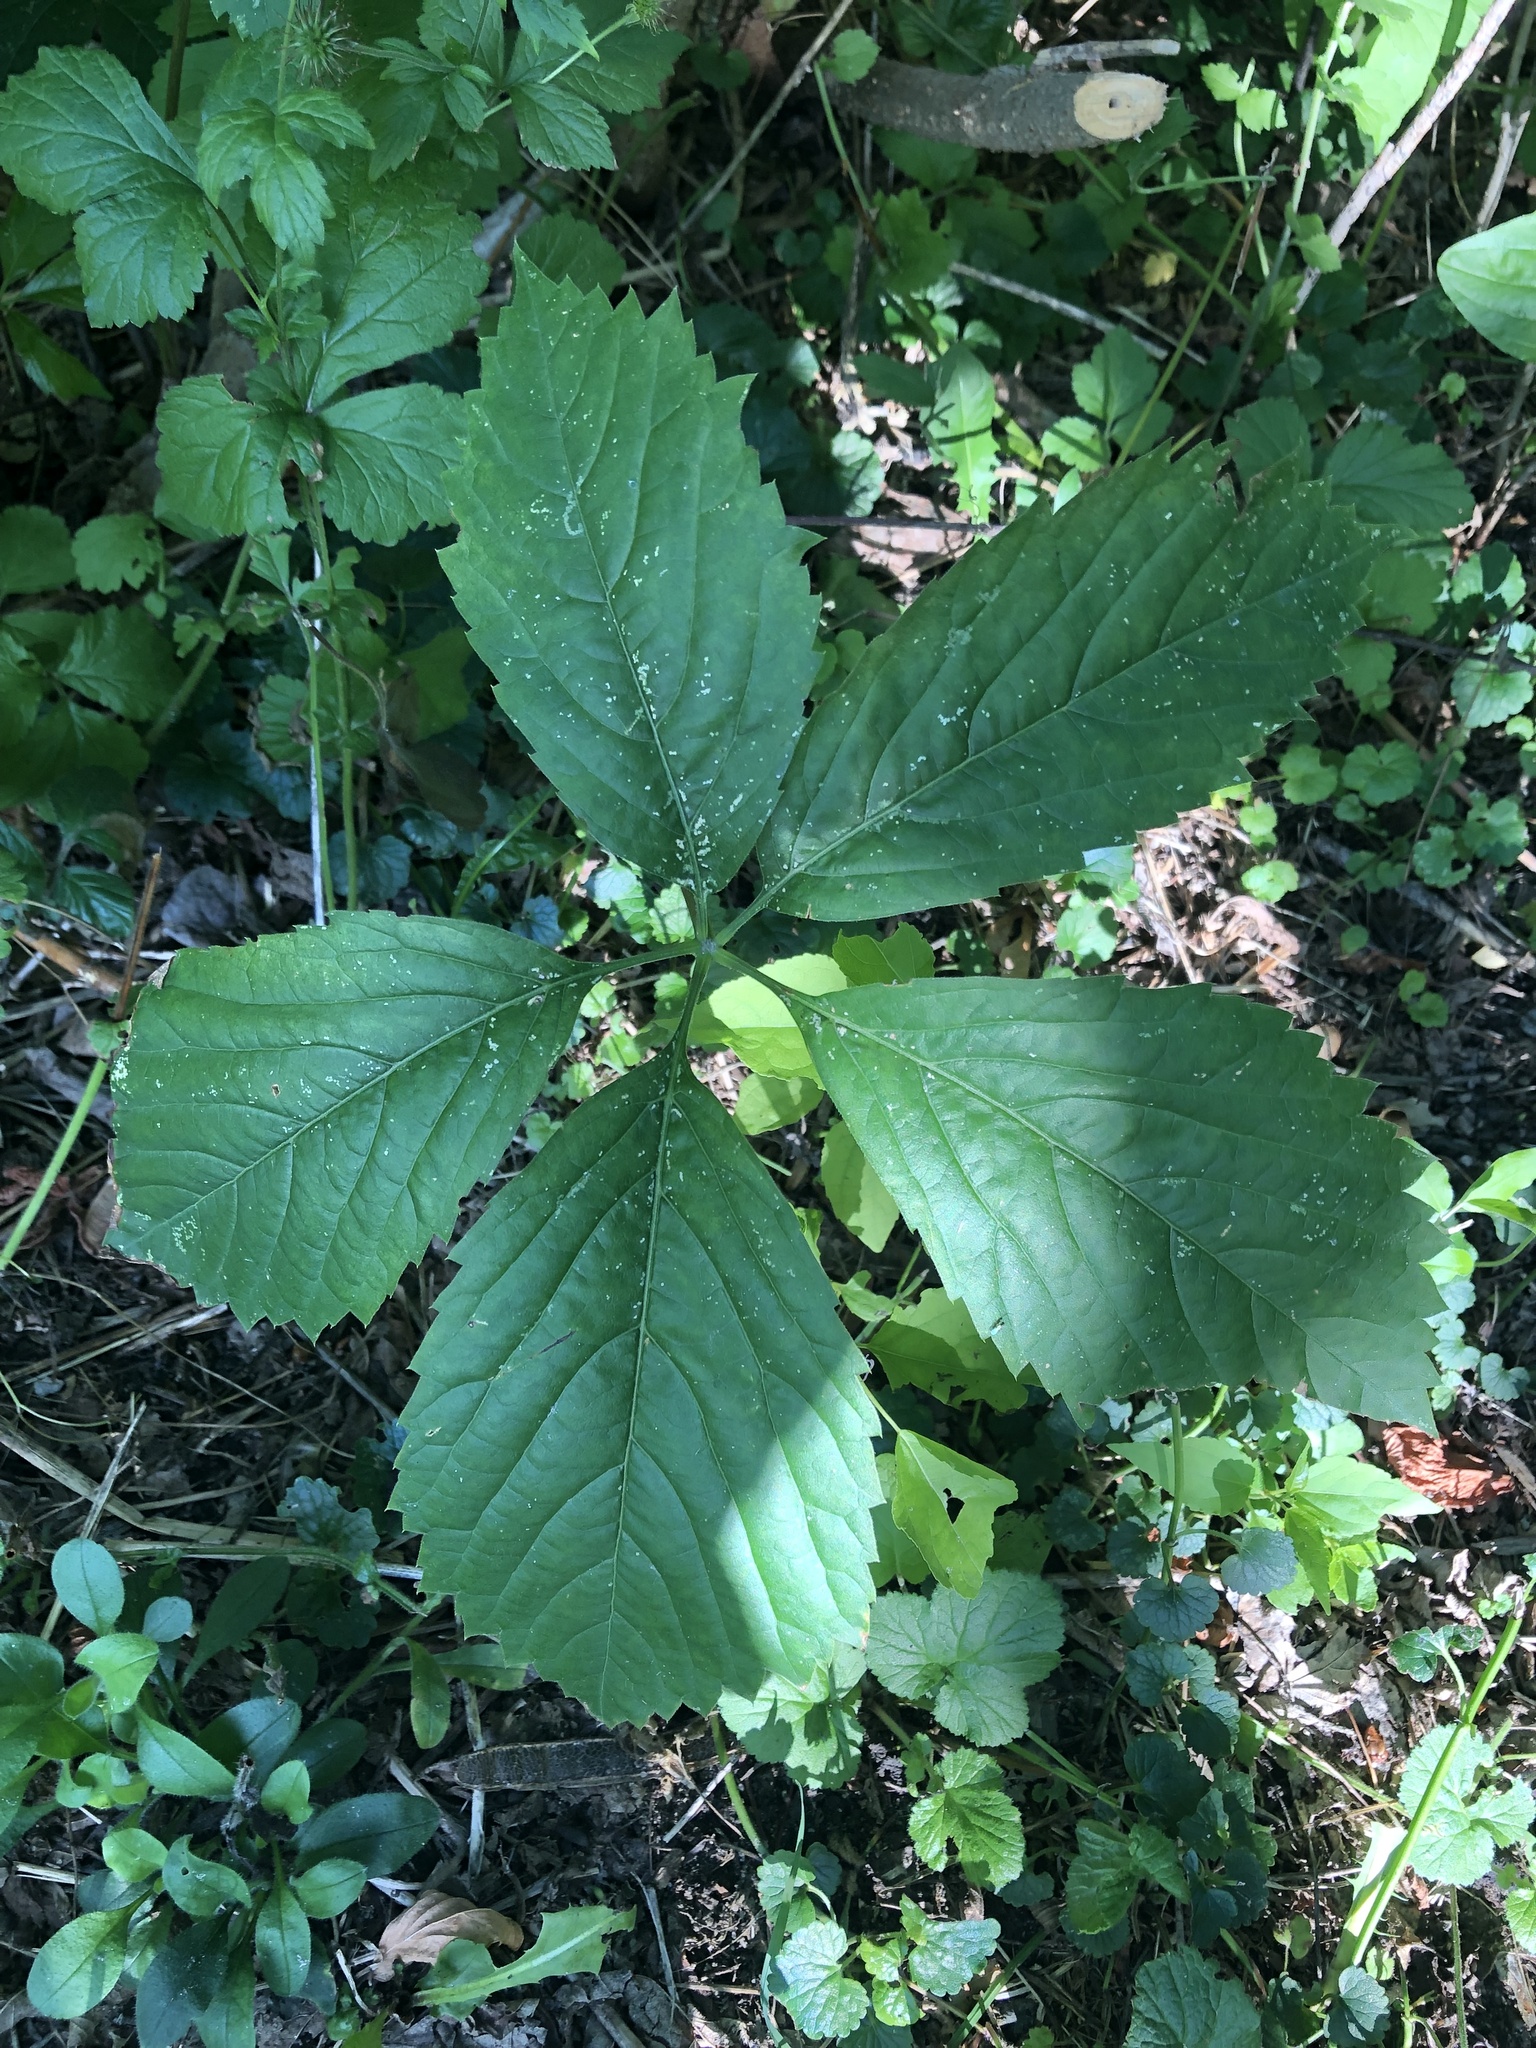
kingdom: Plantae
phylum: Tracheophyta
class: Magnoliopsida
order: Vitales
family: Vitaceae
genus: Parthenocissus
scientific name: Parthenocissus inserta
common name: False virginia-creeper
